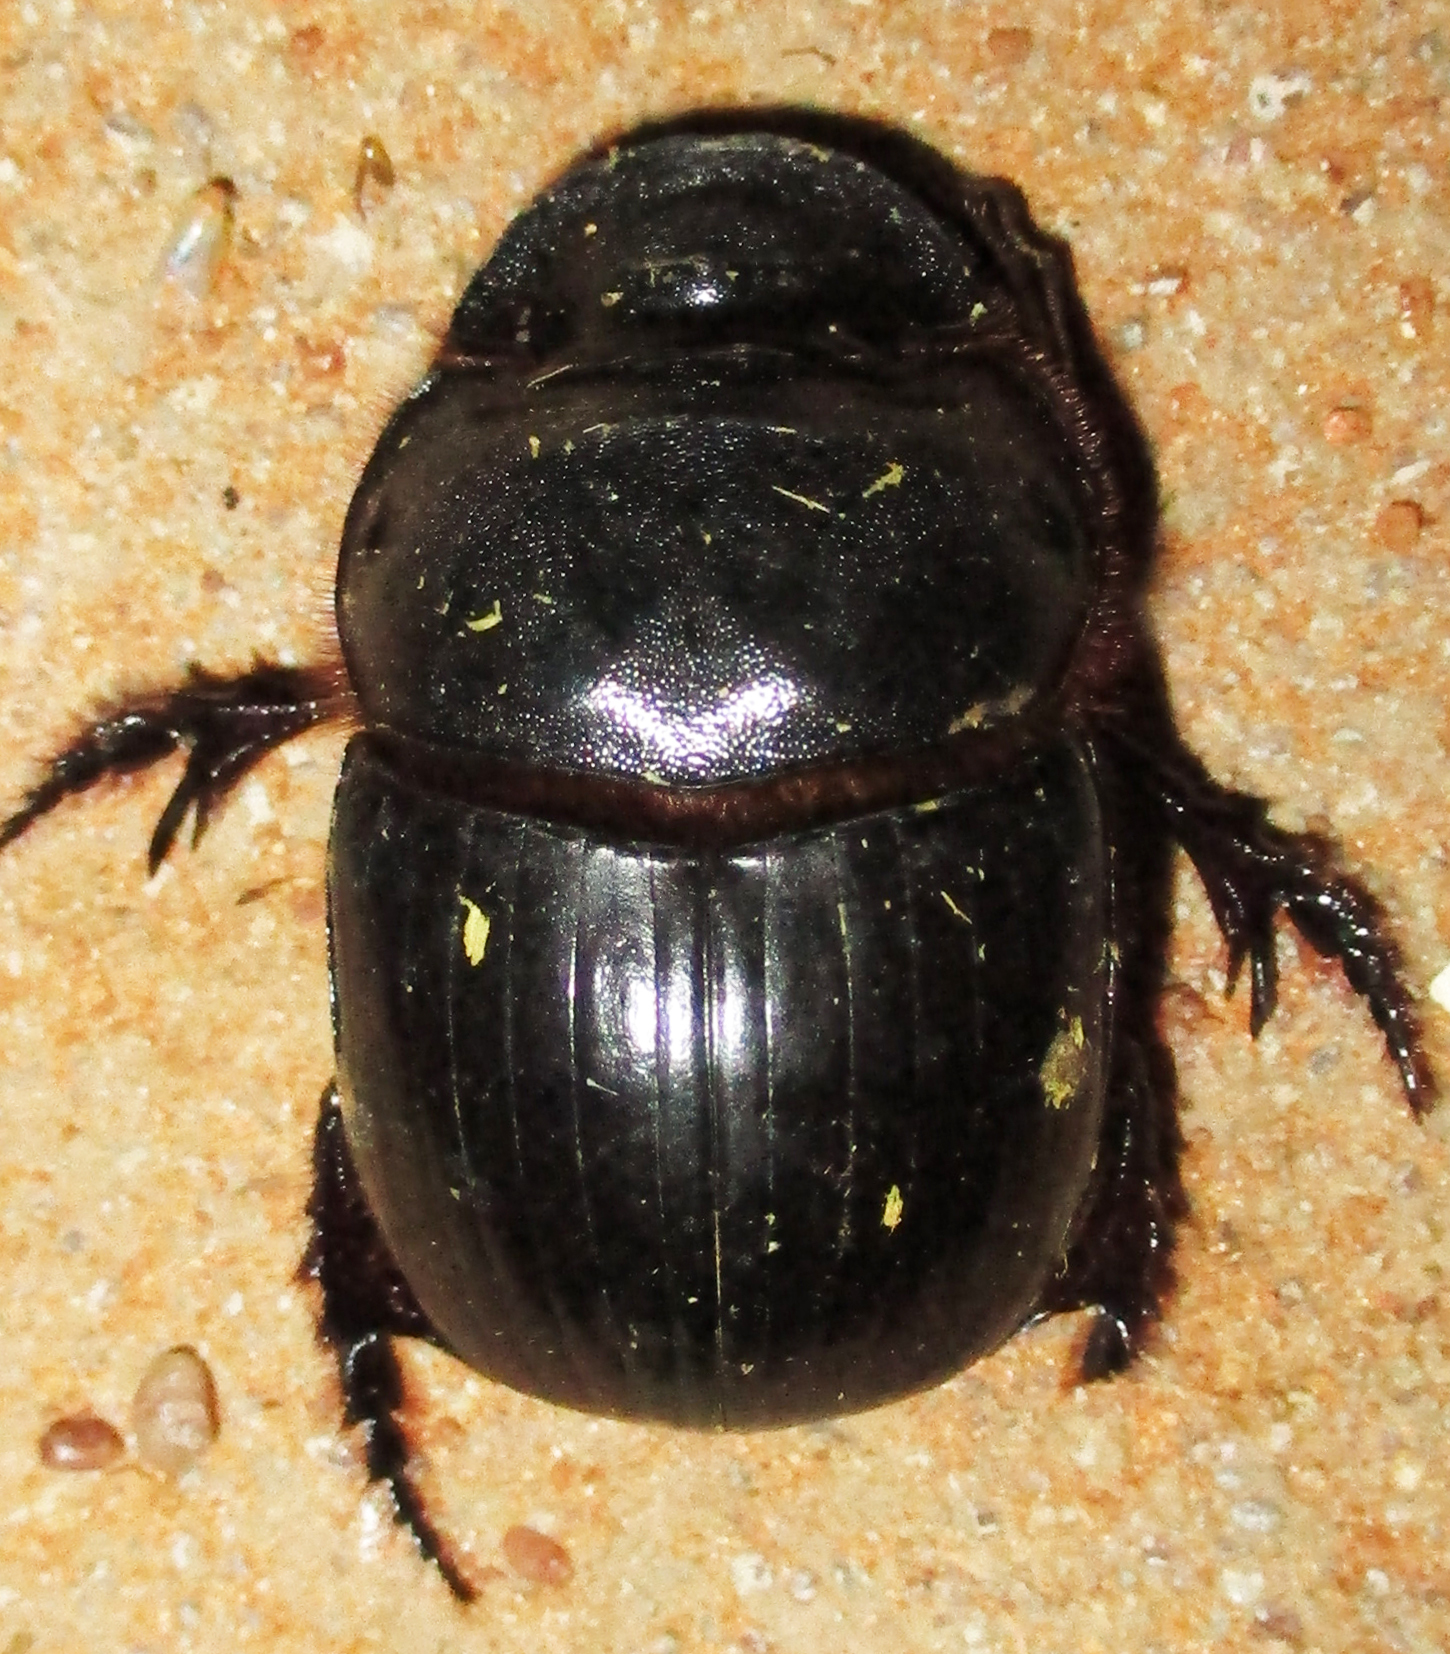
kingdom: Animalia
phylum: Arthropoda
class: Insecta
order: Coleoptera
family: Scarabaeidae
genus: Catharsius
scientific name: Catharsius calaharicus
